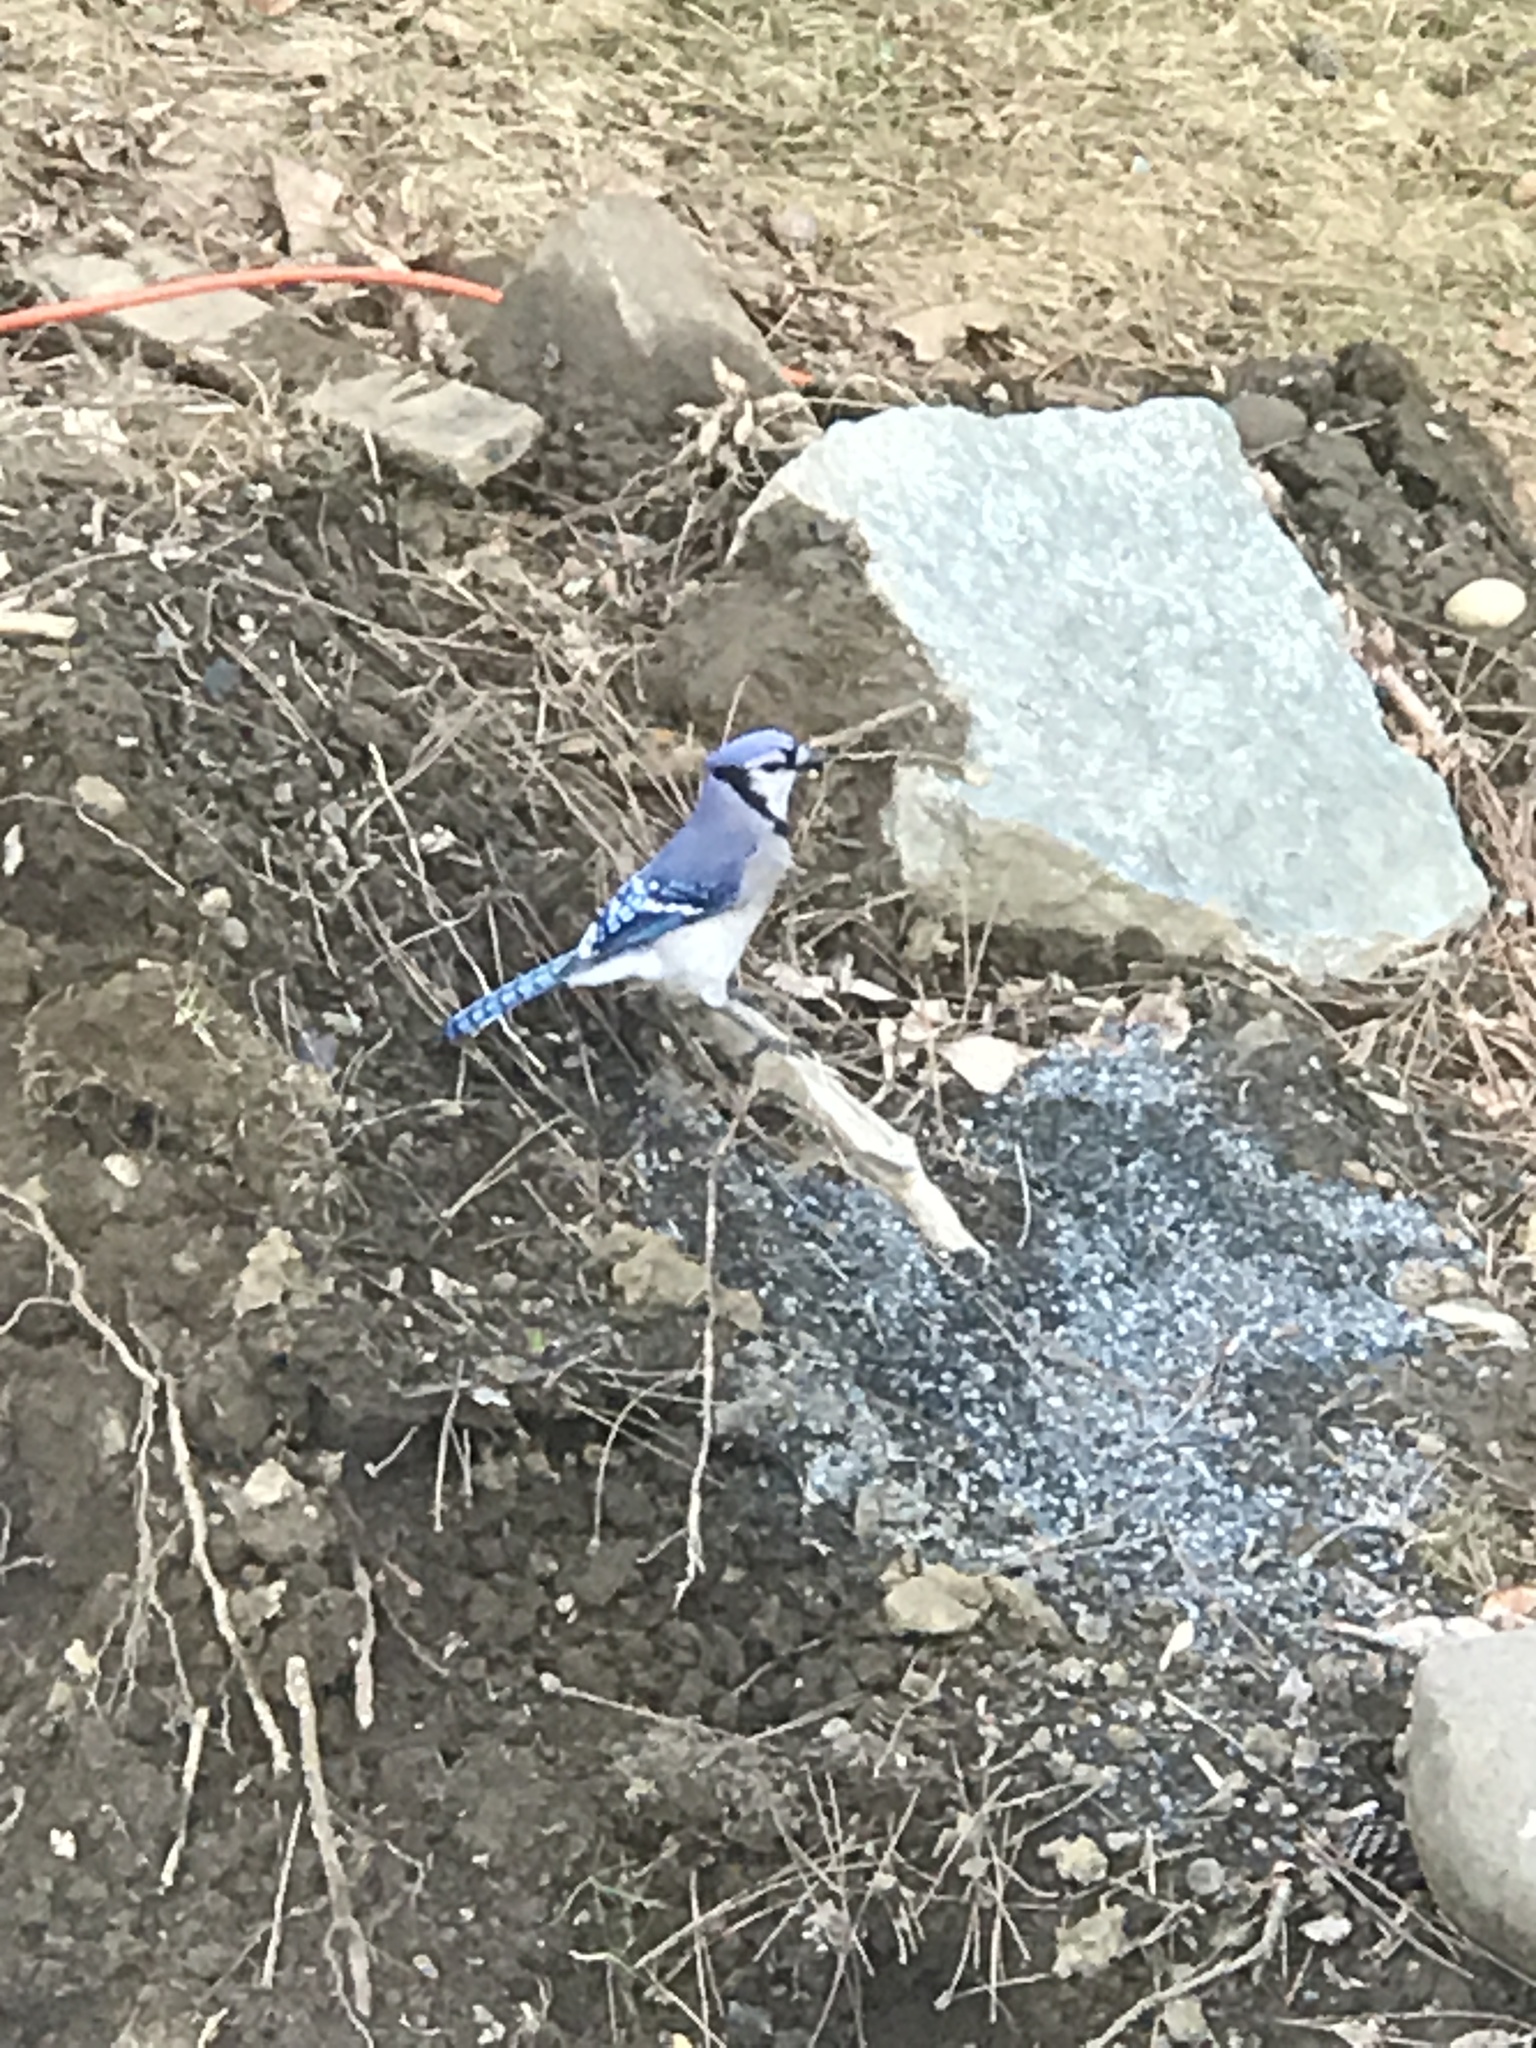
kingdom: Animalia
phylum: Chordata
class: Aves
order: Passeriformes
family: Corvidae
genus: Cyanocitta
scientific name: Cyanocitta cristata
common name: Blue jay
